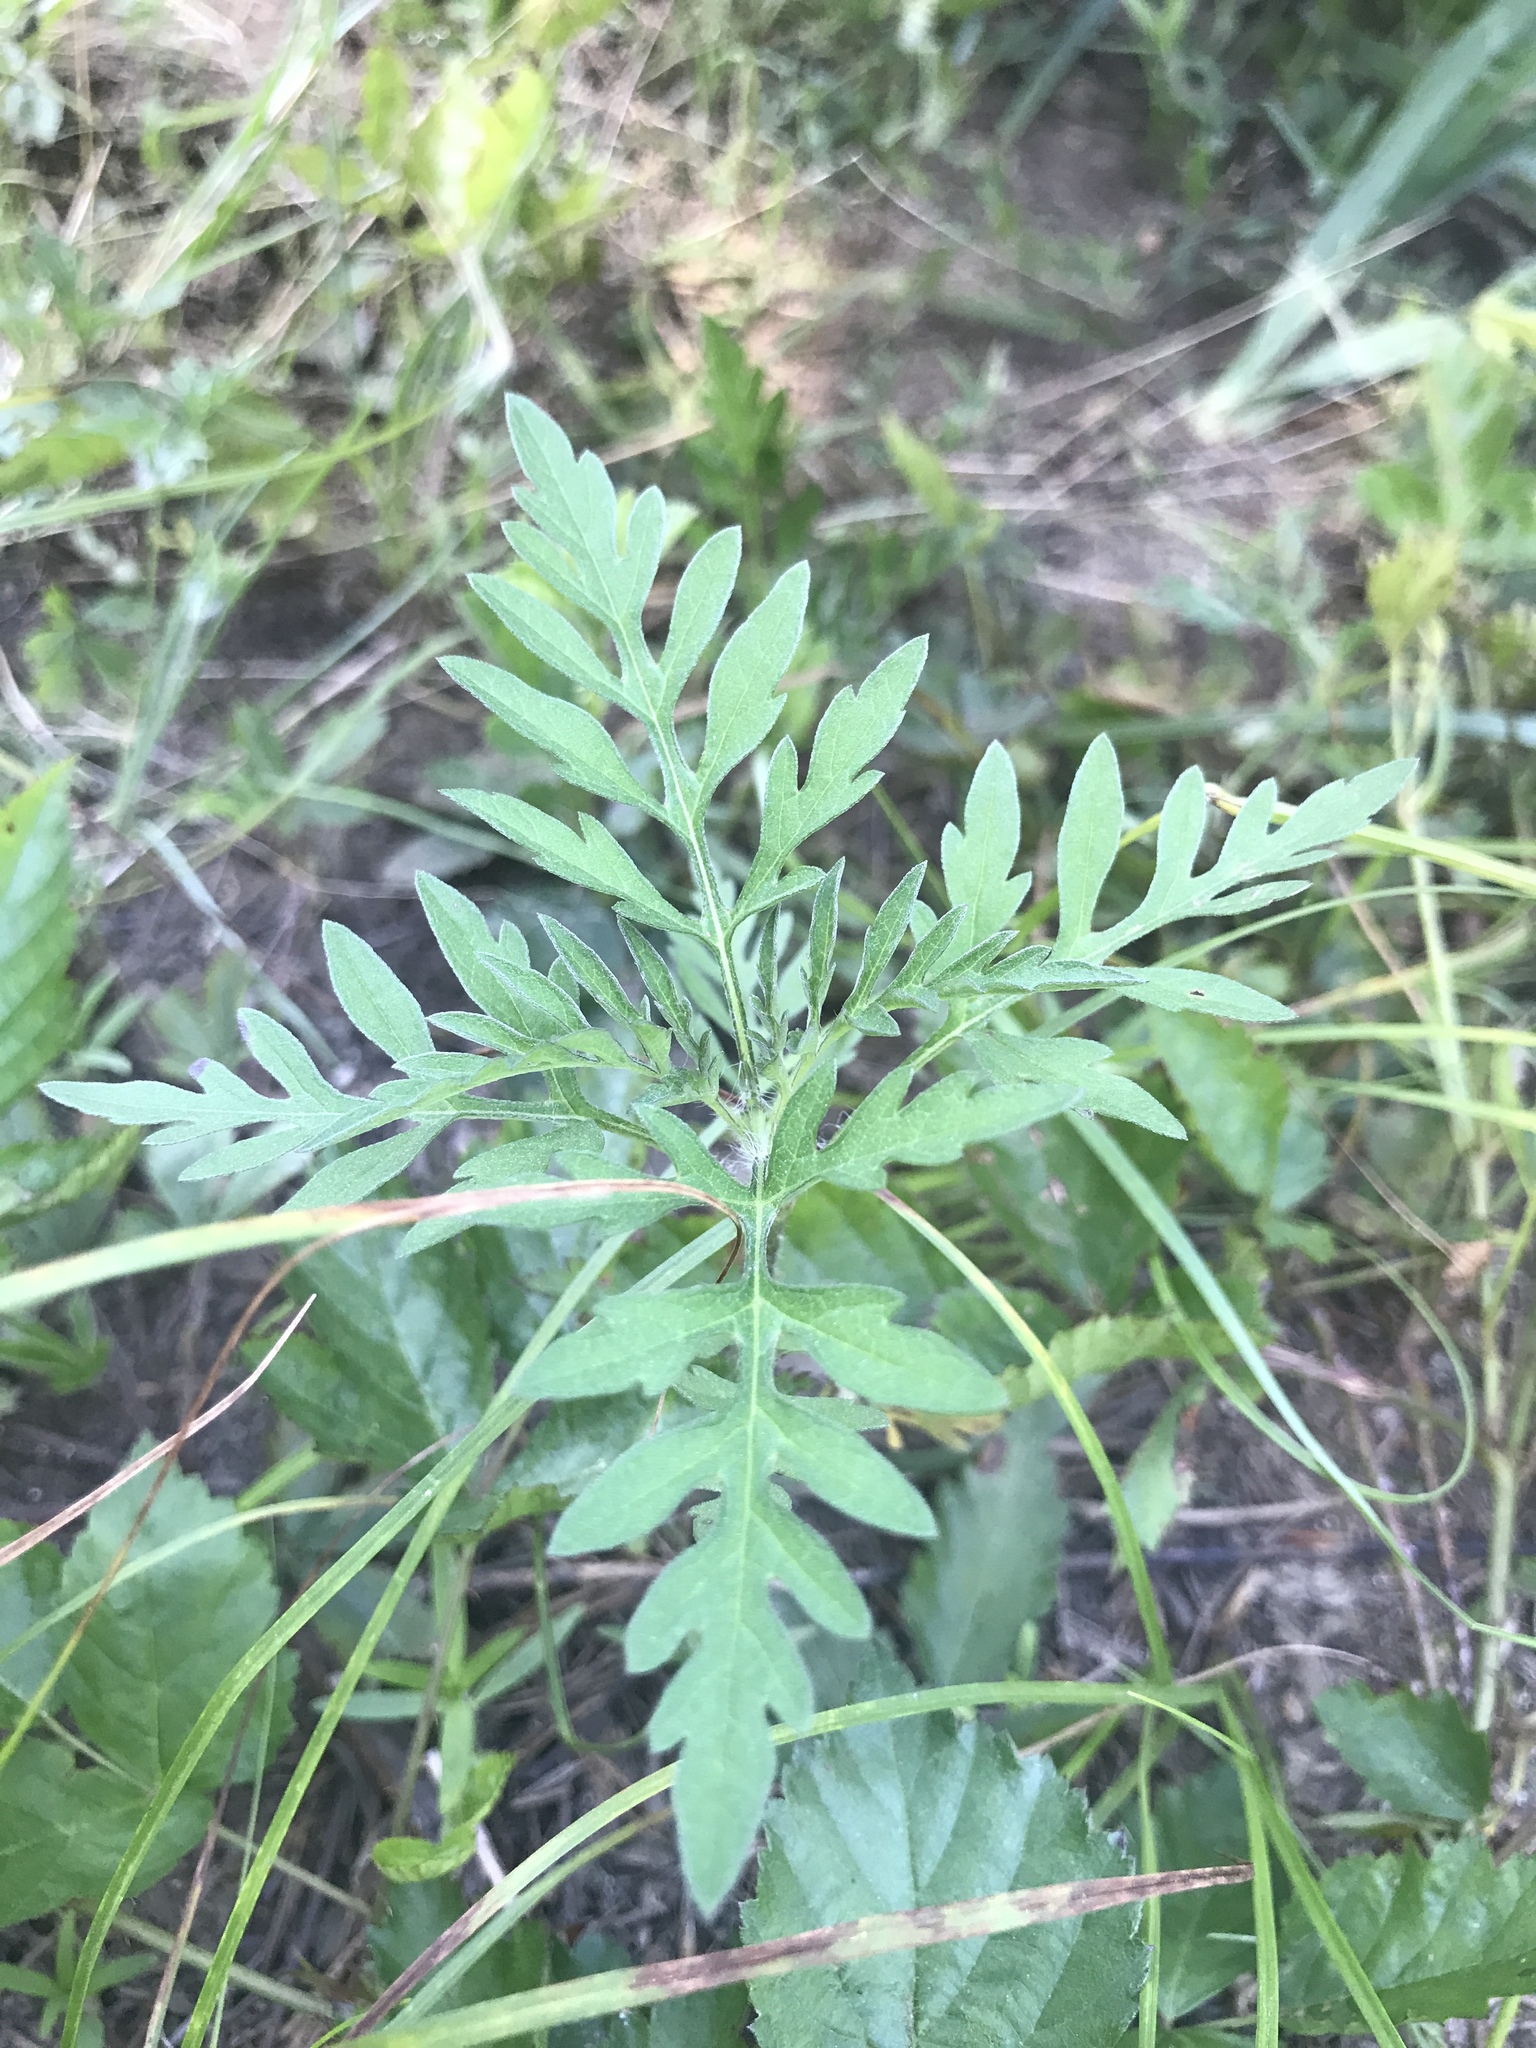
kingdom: Plantae
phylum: Tracheophyta
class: Magnoliopsida
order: Asterales
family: Asteraceae
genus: Ambrosia
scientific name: Ambrosia artemisiifolia
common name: Annual ragweed
